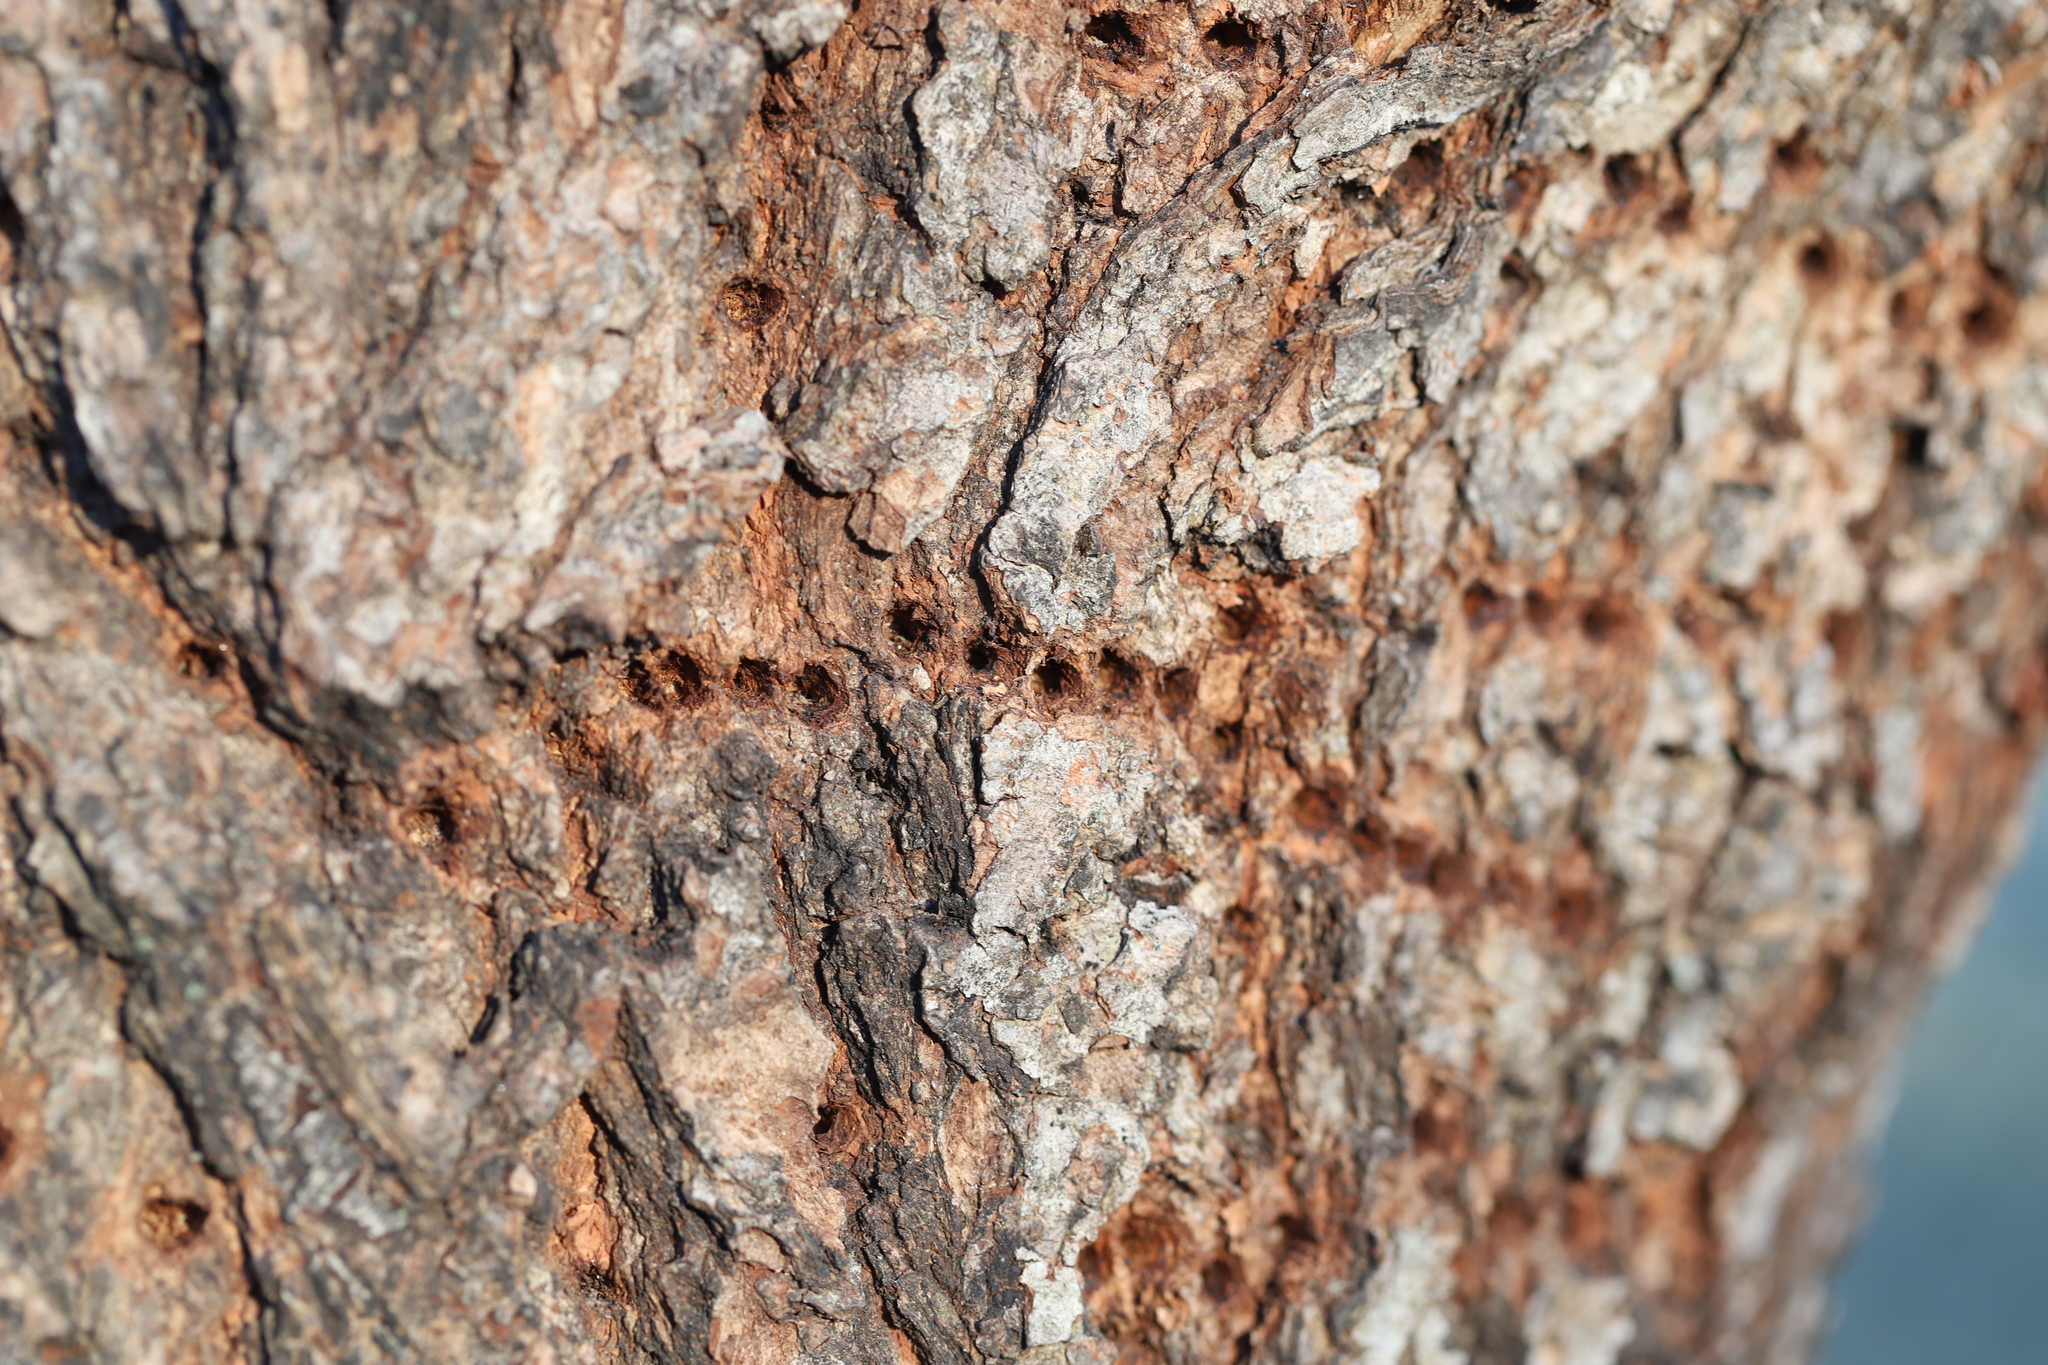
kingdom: Animalia
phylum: Chordata
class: Aves
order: Piciformes
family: Picidae
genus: Sphyrapicus
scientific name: Sphyrapicus varius
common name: Yellow-bellied sapsucker
